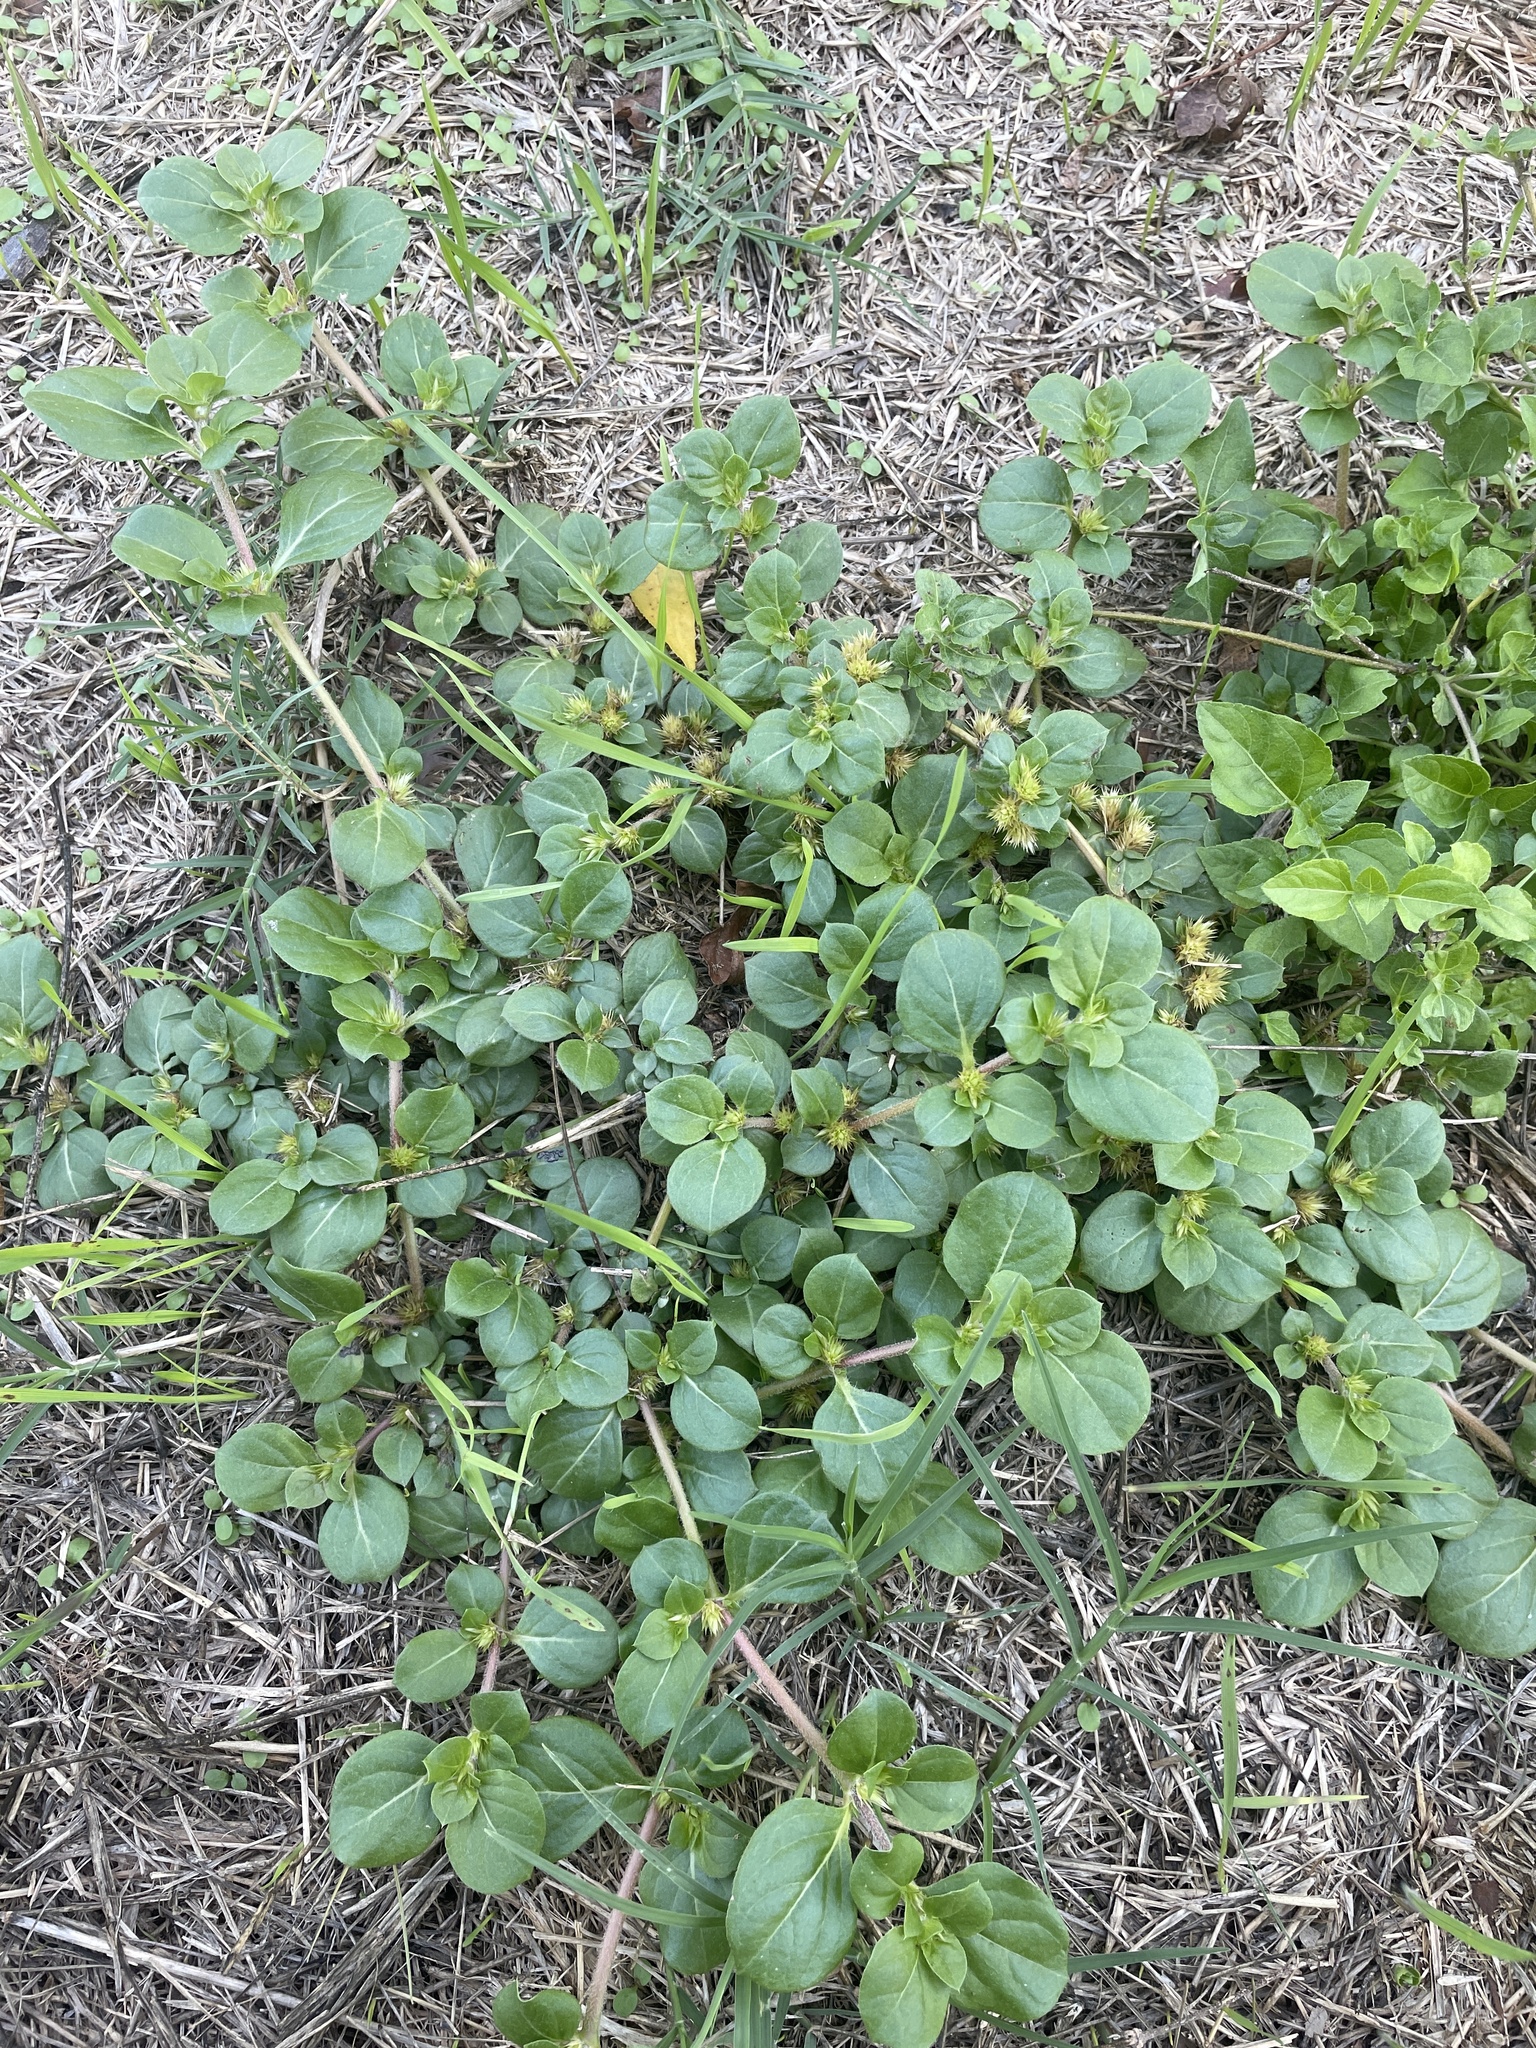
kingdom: Plantae
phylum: Tracheophyta
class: Magnoliopsida
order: Caryophyllales
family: Amaranthaceae
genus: Alternanthera
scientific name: Alternanthera pungens
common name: Khakiweed
